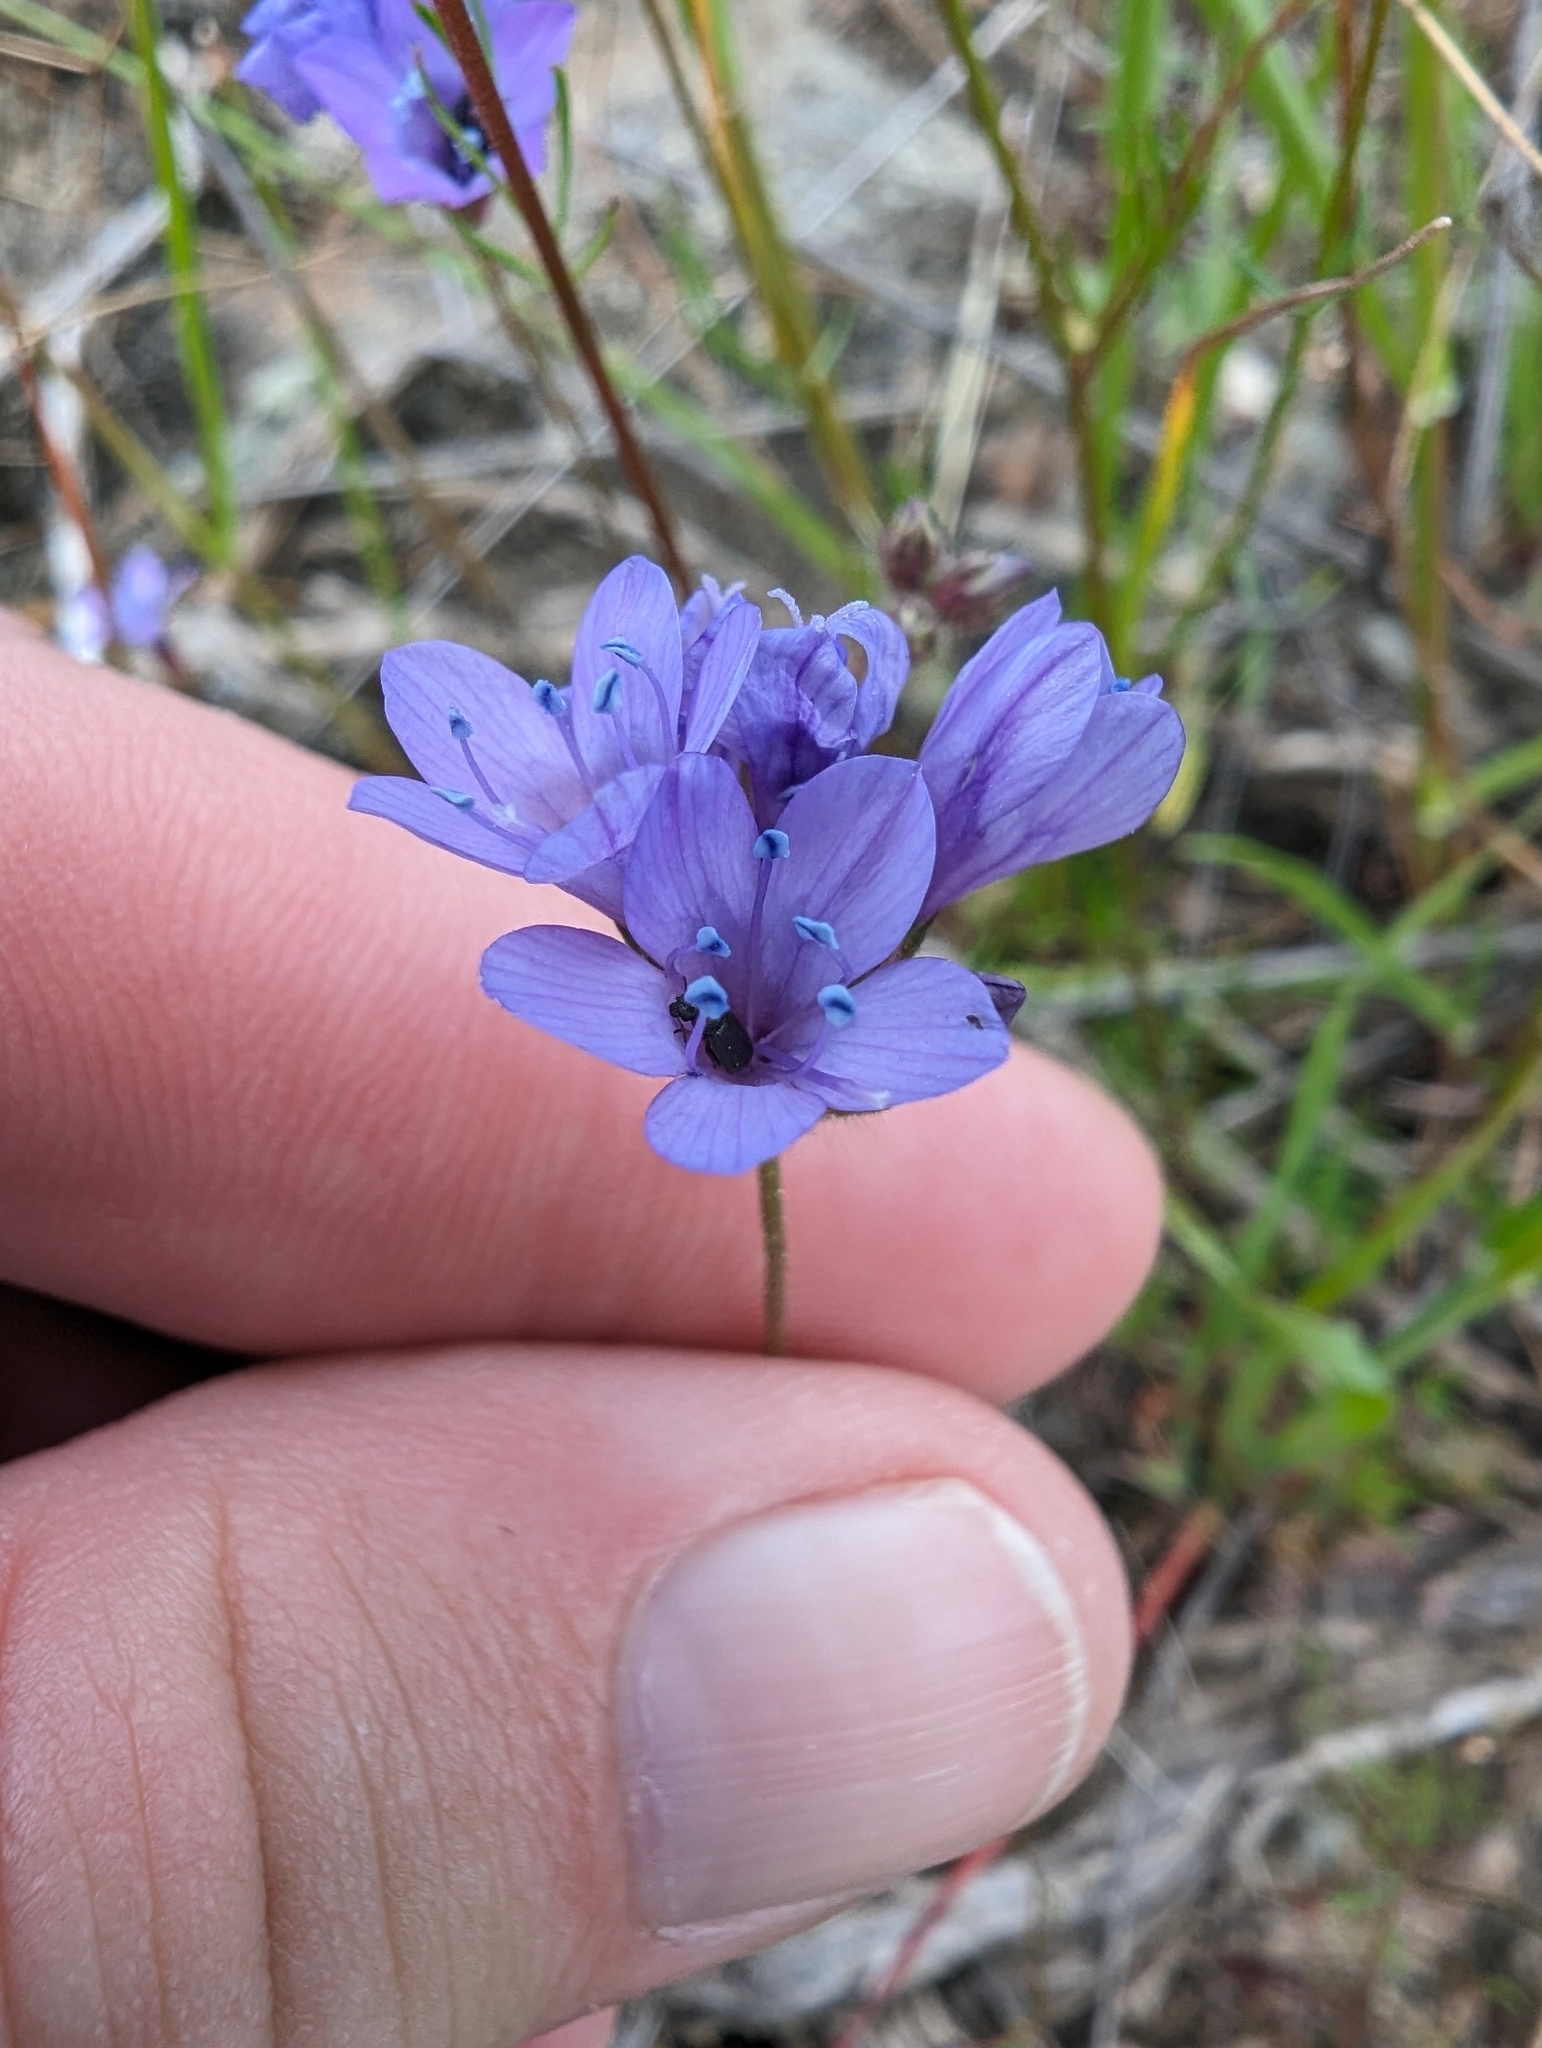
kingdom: Plantae
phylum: Tracheophyta
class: Magnoliopsida
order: Ericales
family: Polemoniaceae
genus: Gilia
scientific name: Gilia achilleifolia
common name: California gily-flower
